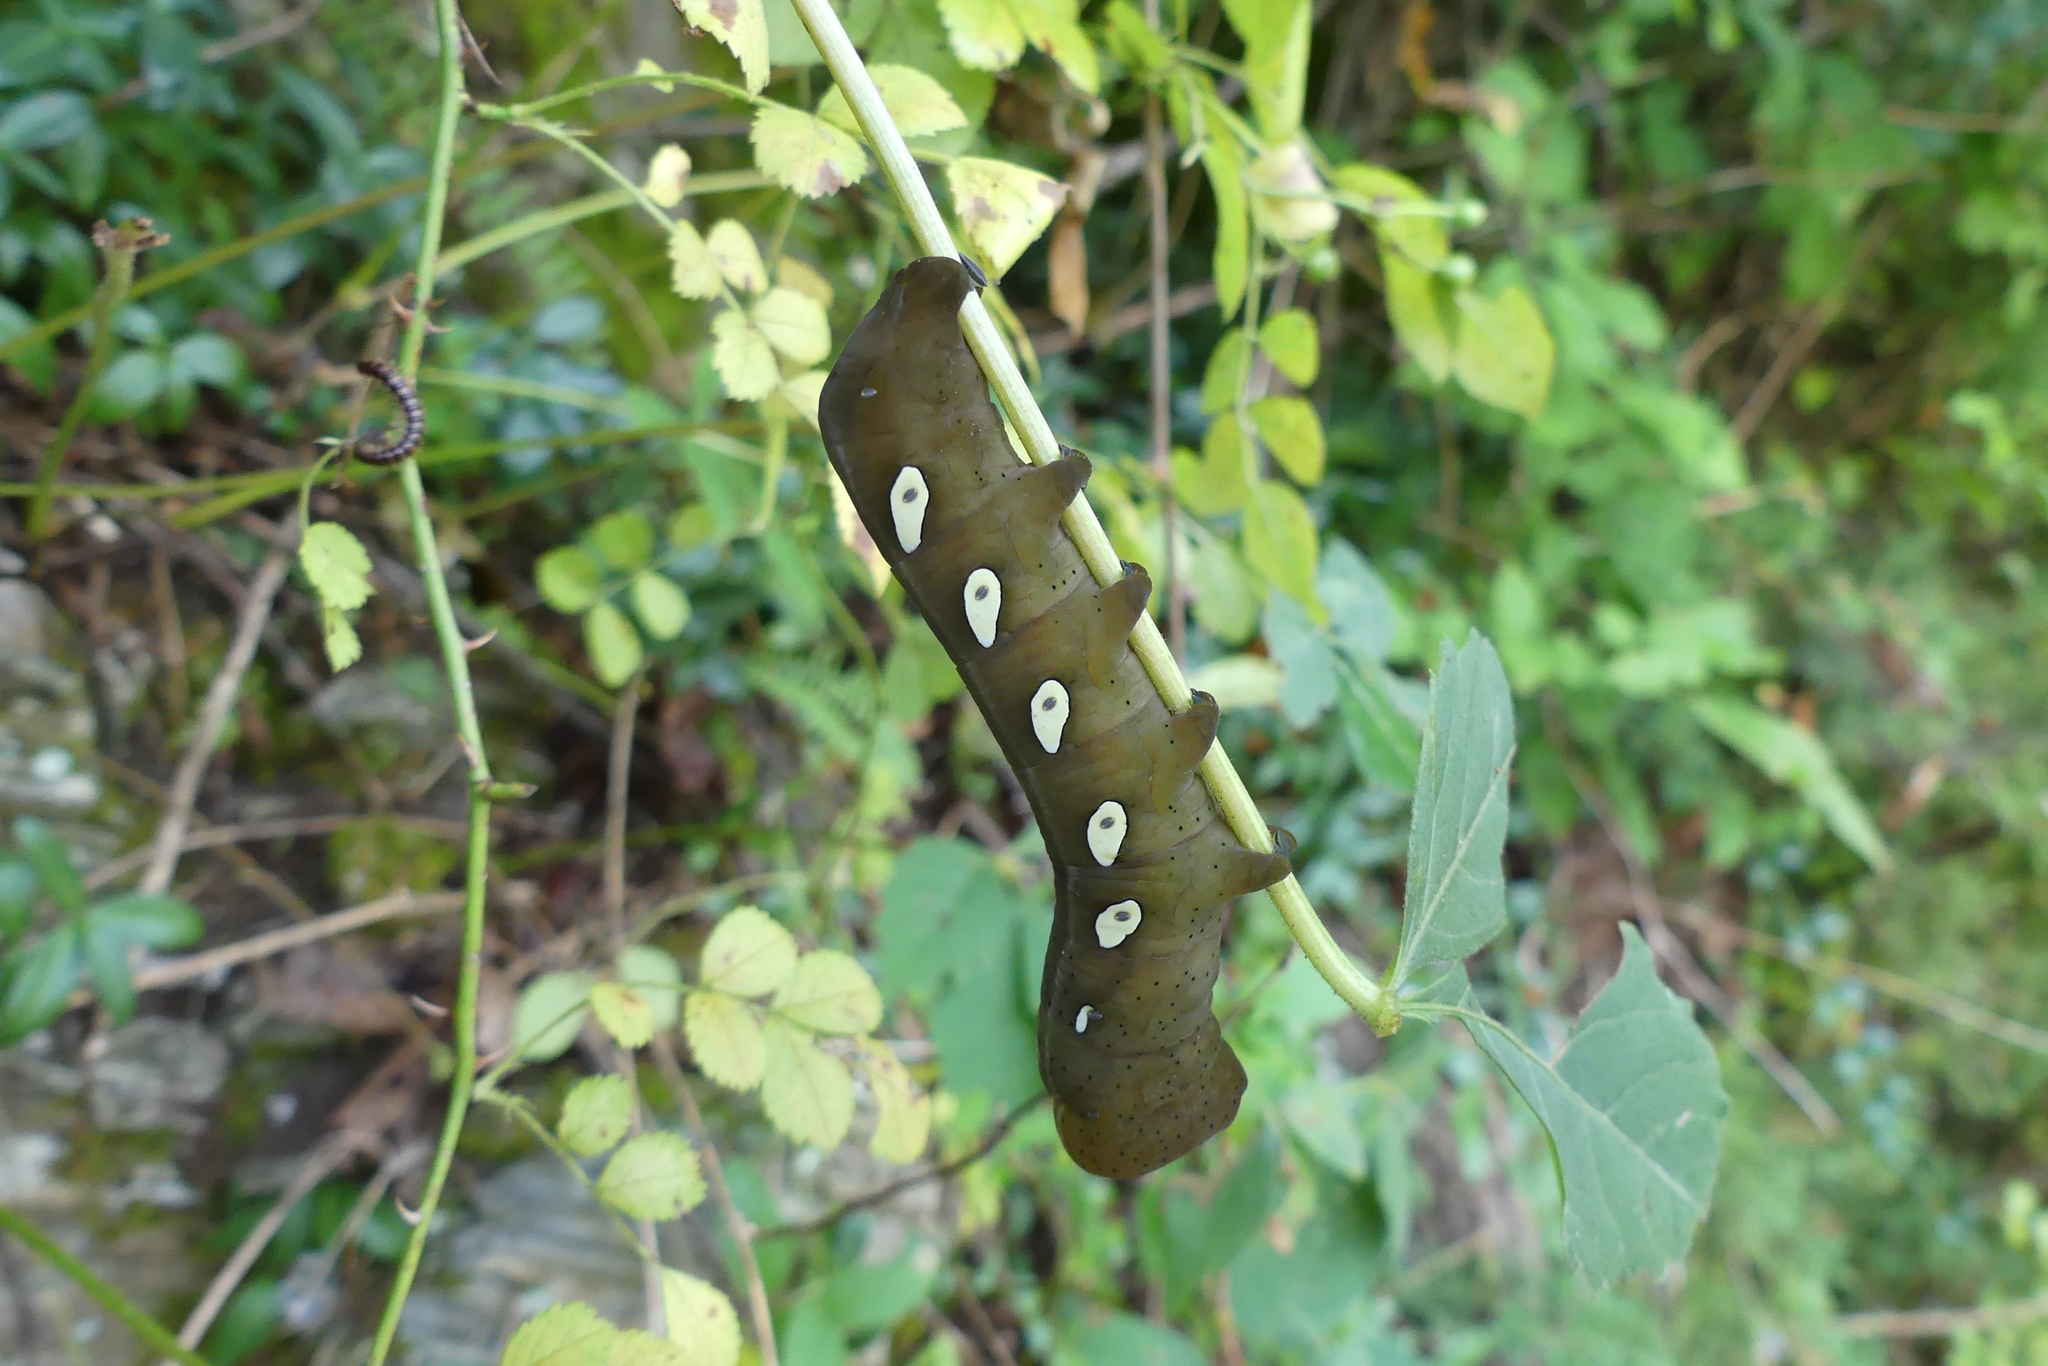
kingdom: Animalia
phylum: Arthropoda
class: Insecta
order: Lepidoptera
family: Sphingidae
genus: Eumorpha
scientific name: Eumorpha pandorus
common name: Pandora sphinx
